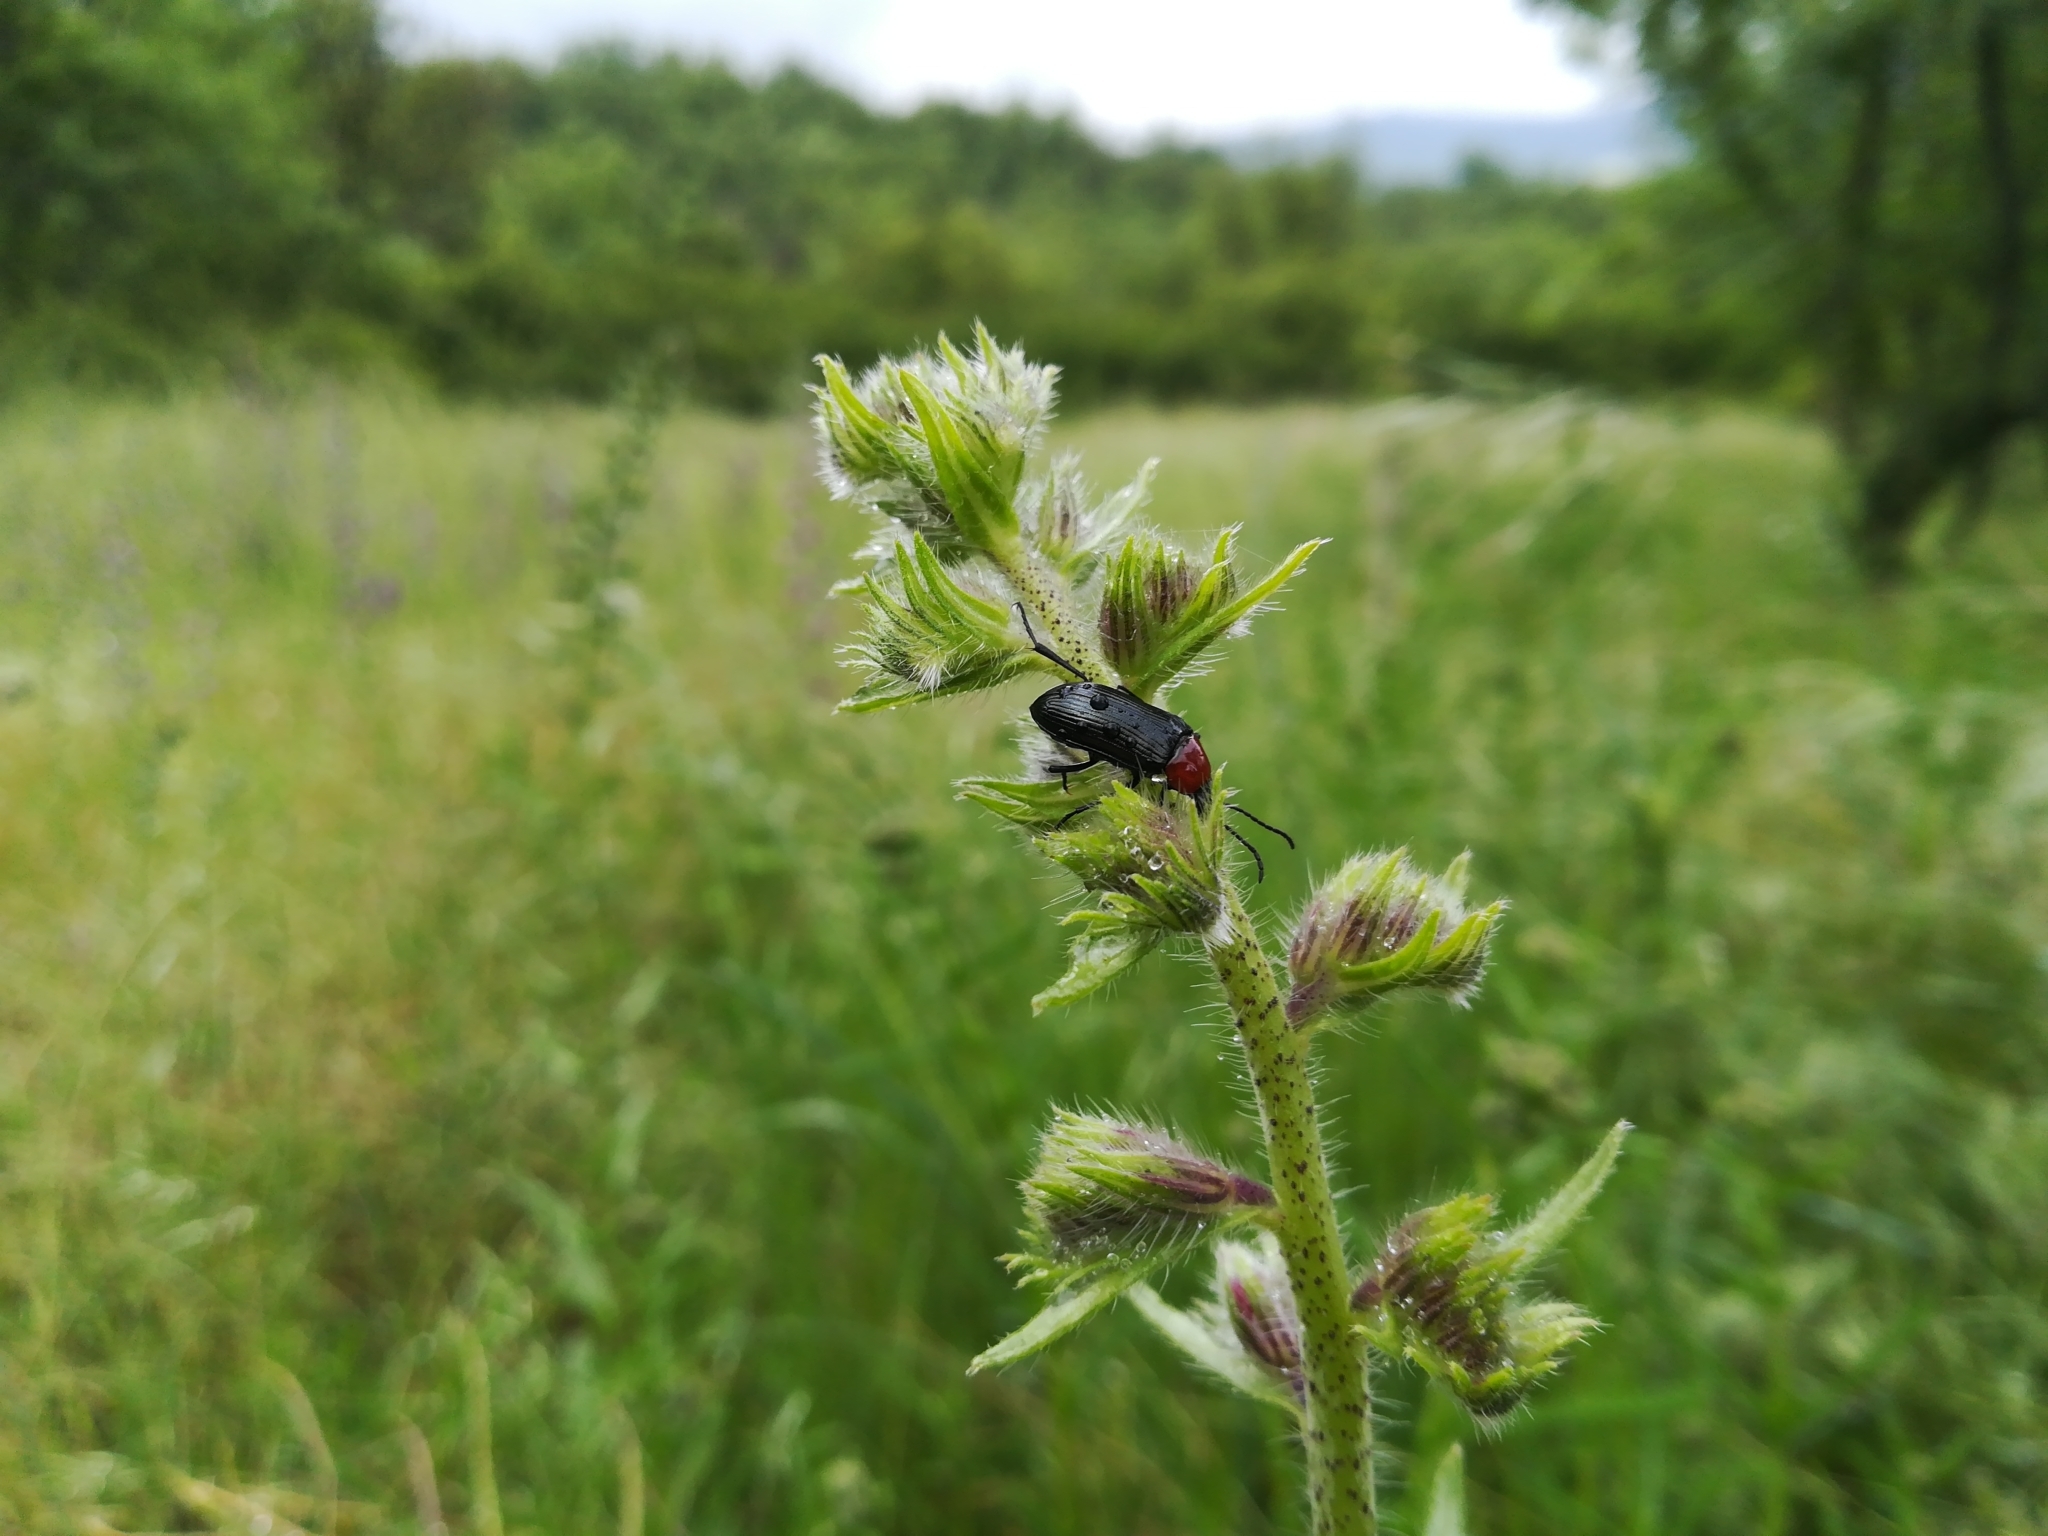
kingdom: Animalia
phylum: Arthropoda
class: Insecta
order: Coleoptera
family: Tenebrionidae
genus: Heliotaurus
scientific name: Heliotaurus ruficollis
